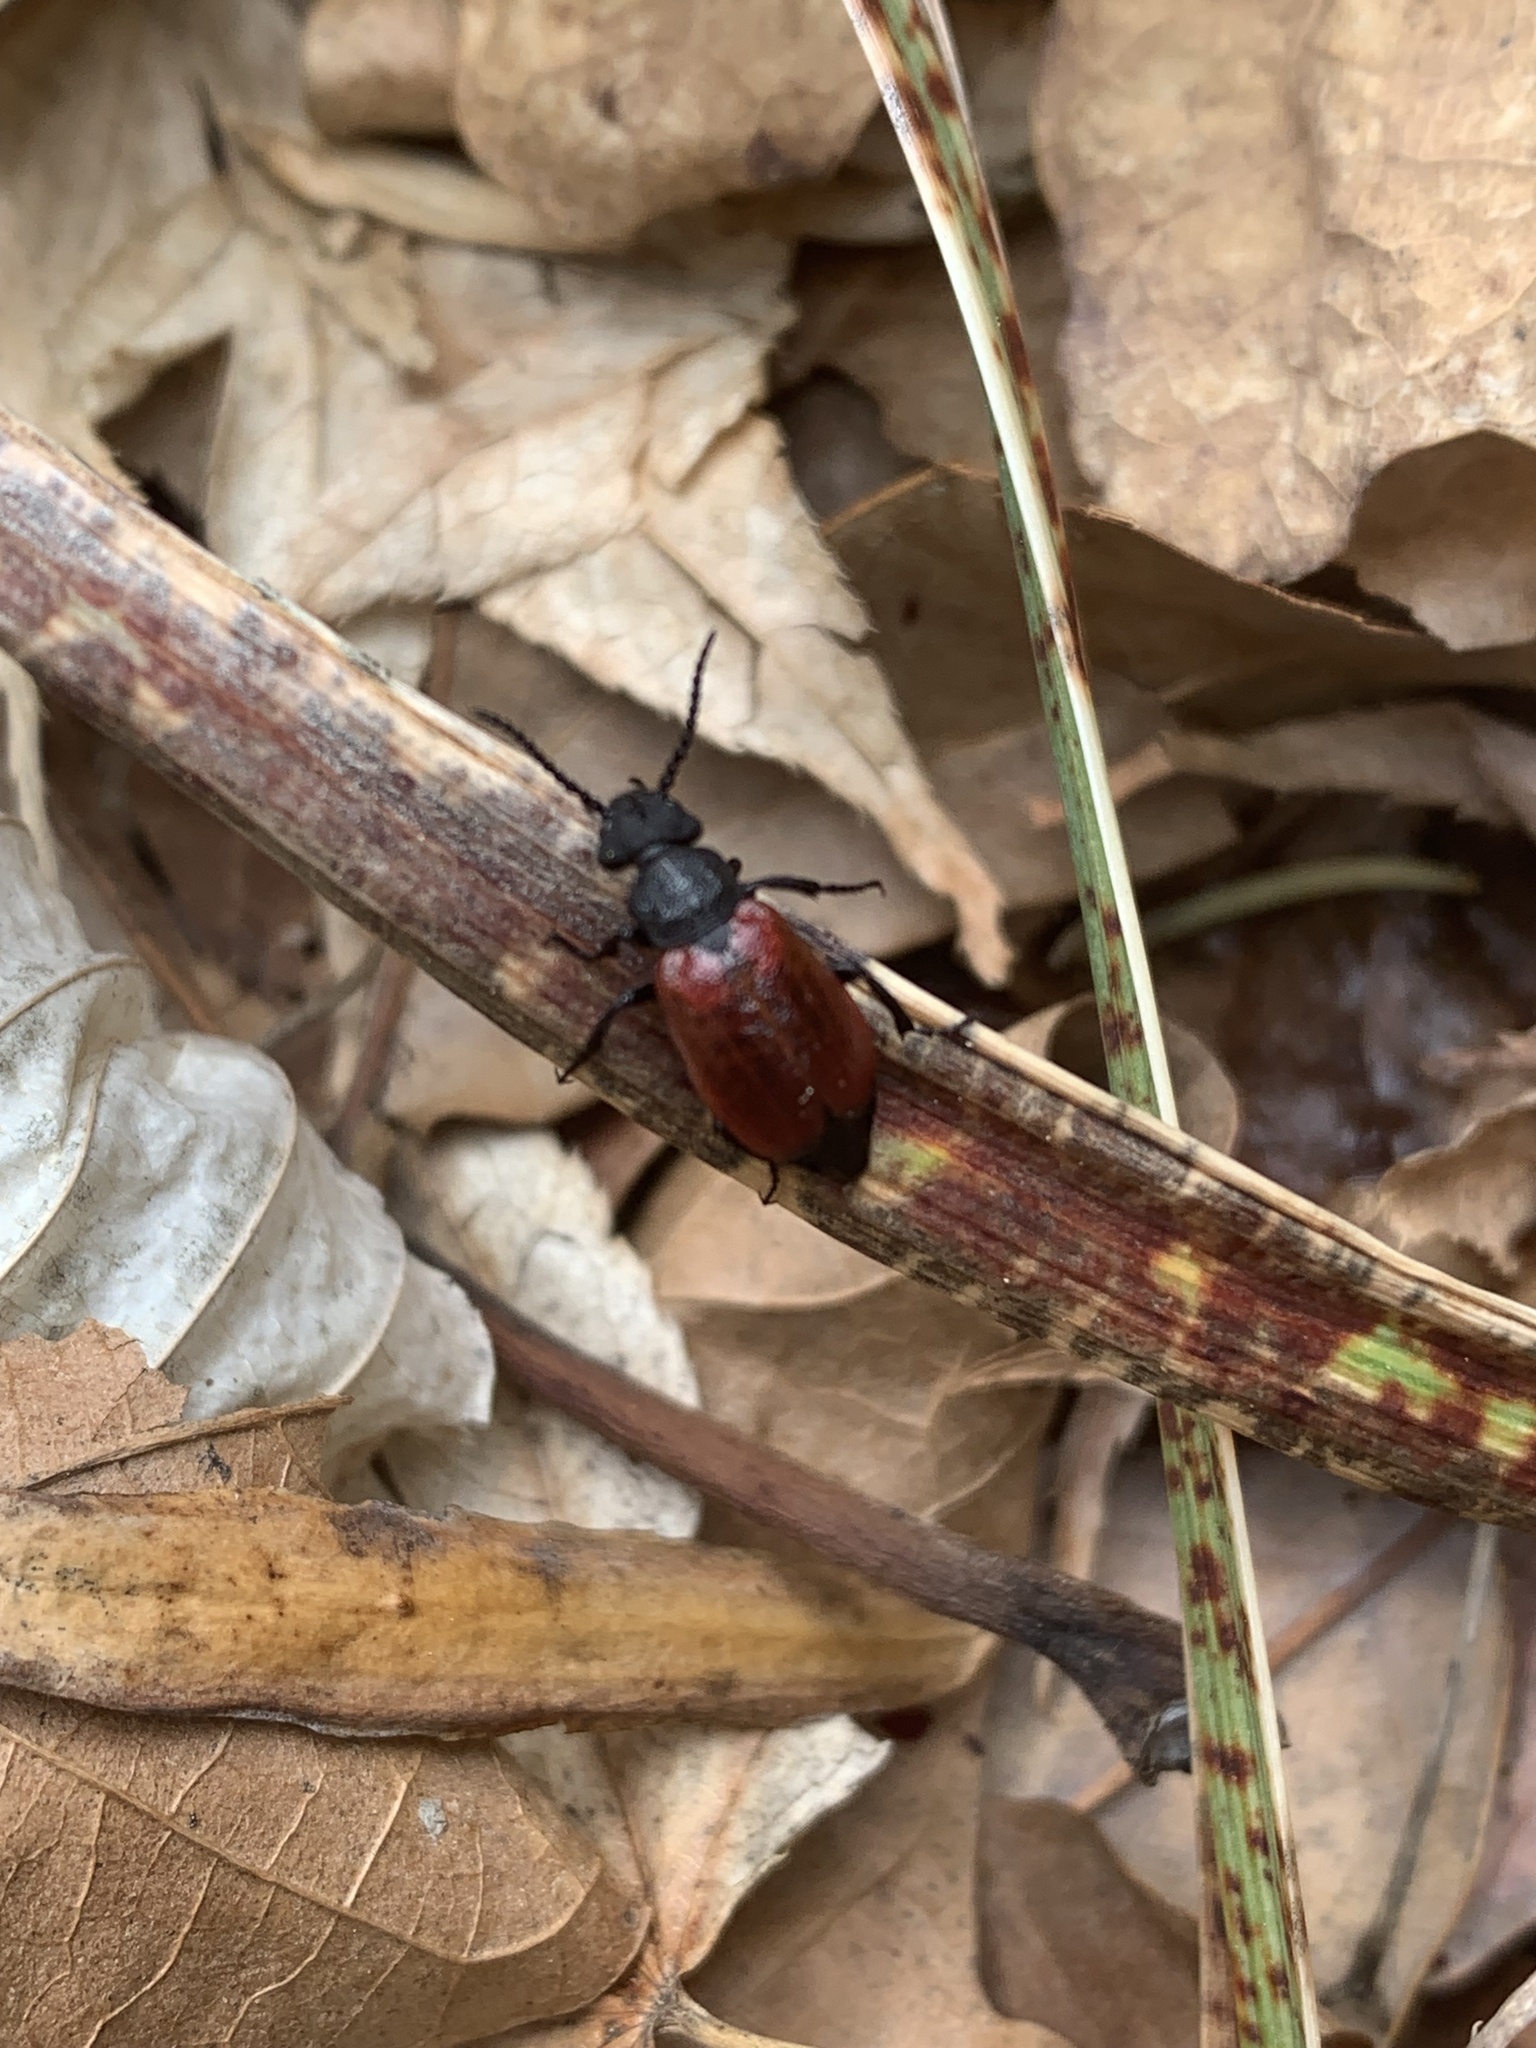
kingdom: Animalia
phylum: Arthropoda
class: Insecta
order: Coleoptera
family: Meloidae
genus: Tricrania
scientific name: Tricrania sanguinipennis
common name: Blood-winged blister beetle
